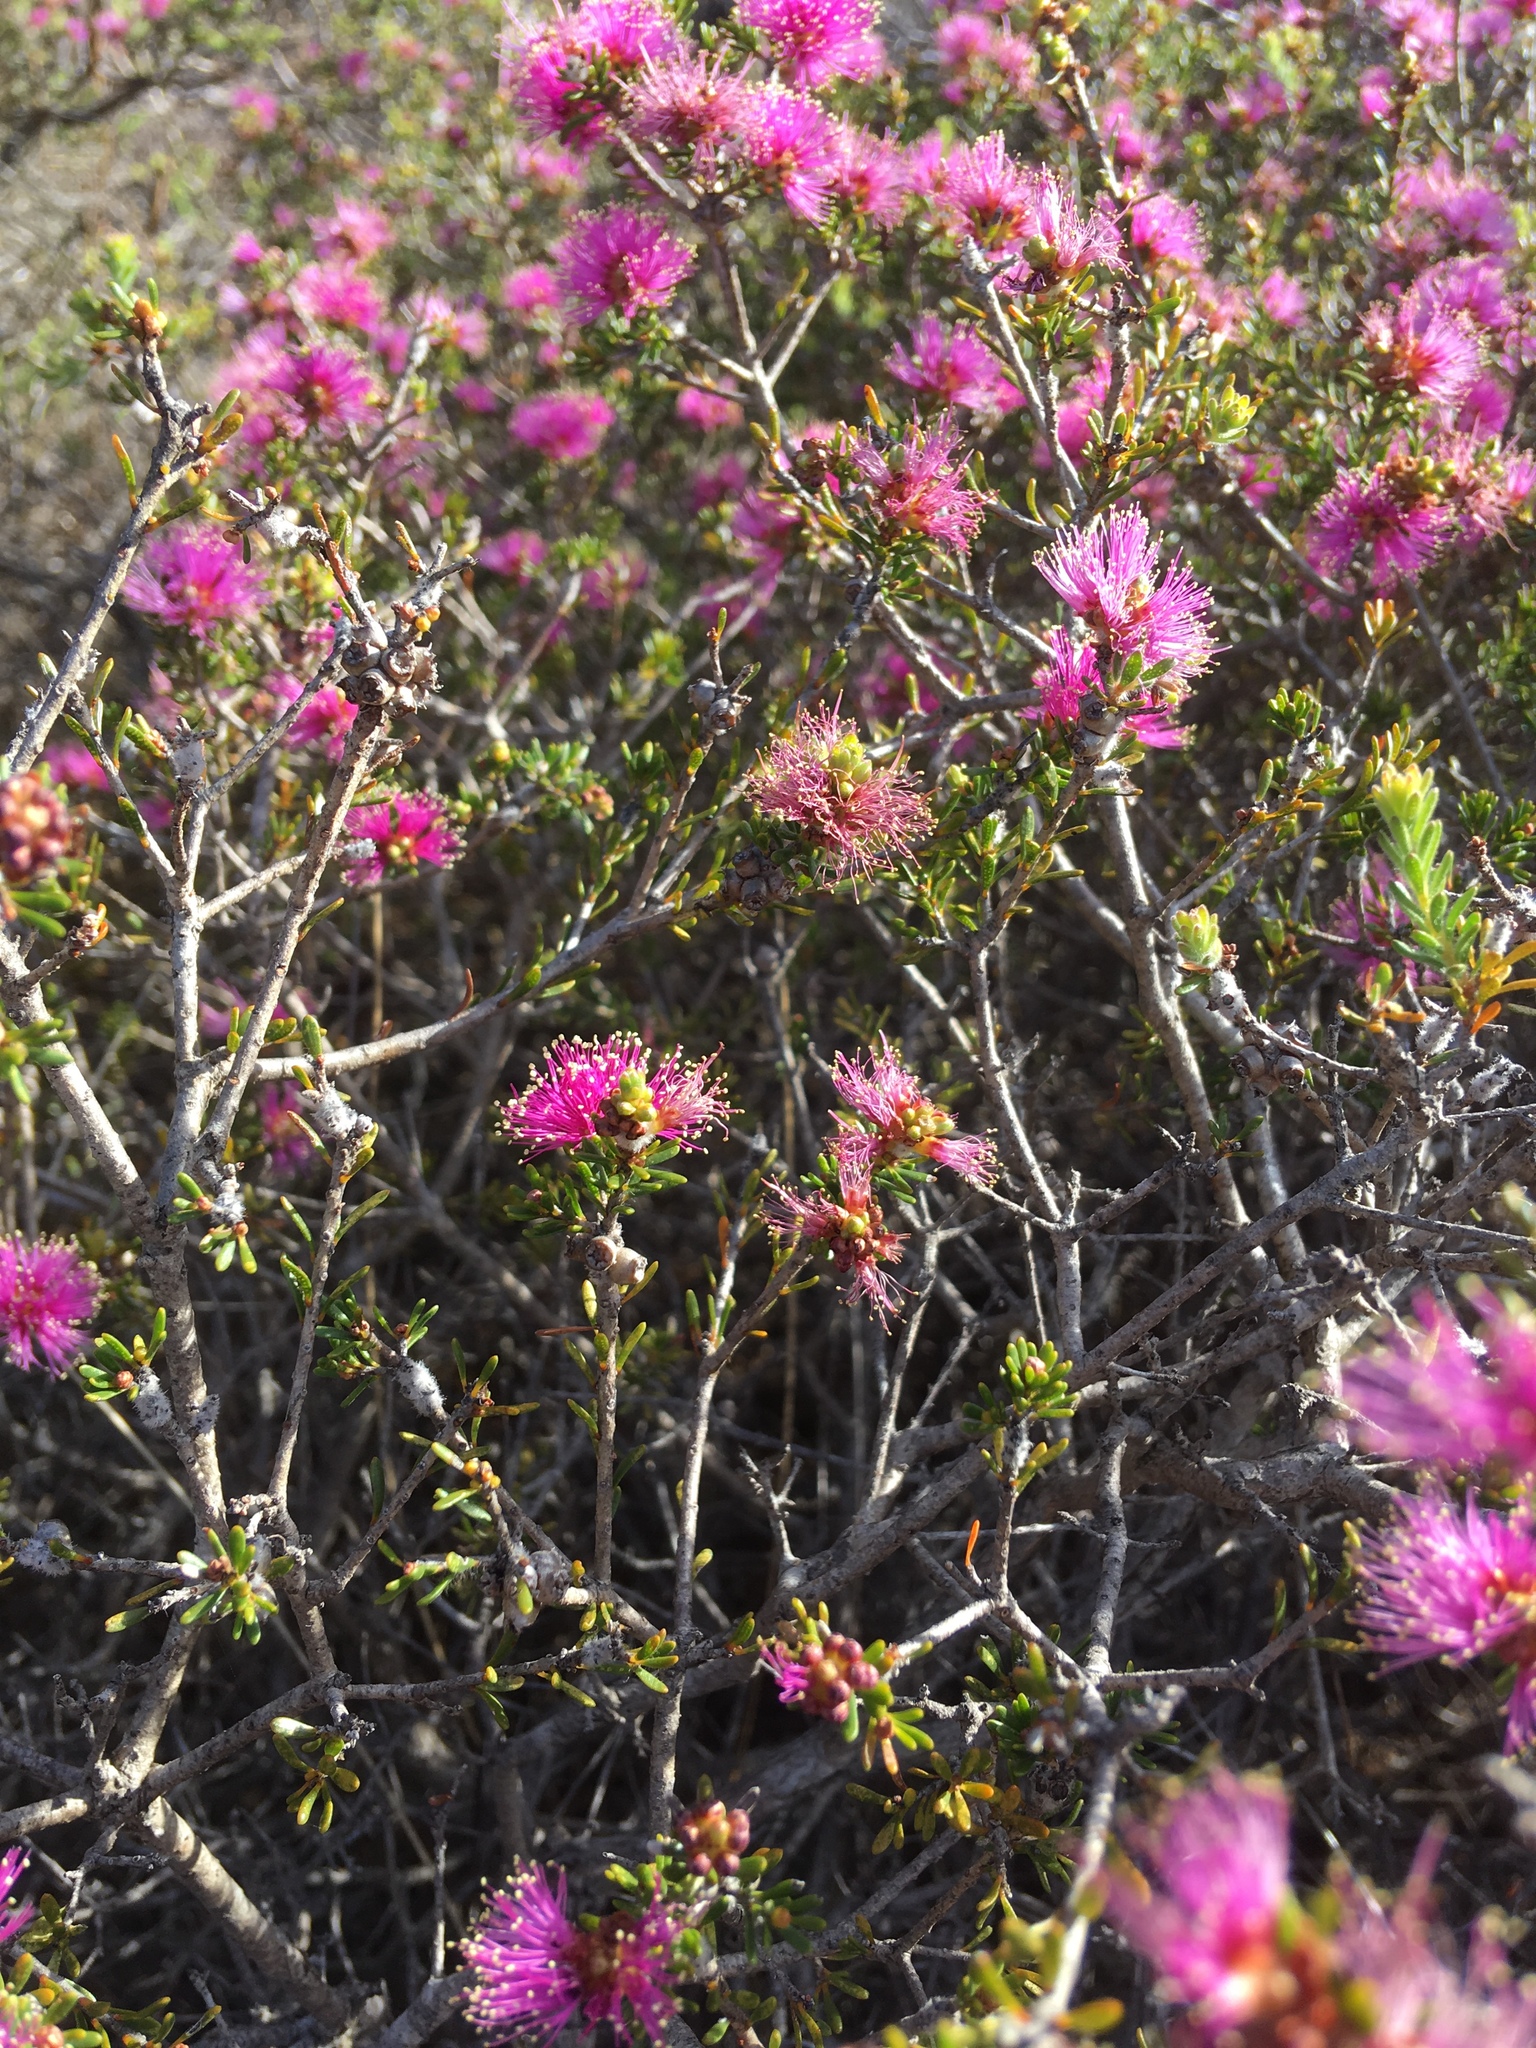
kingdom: Plantae
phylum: Tracheophyta
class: Magnoliopsida
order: Myrtales
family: Myrtaceae
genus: Melaleuca
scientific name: Melaleuca seriata
